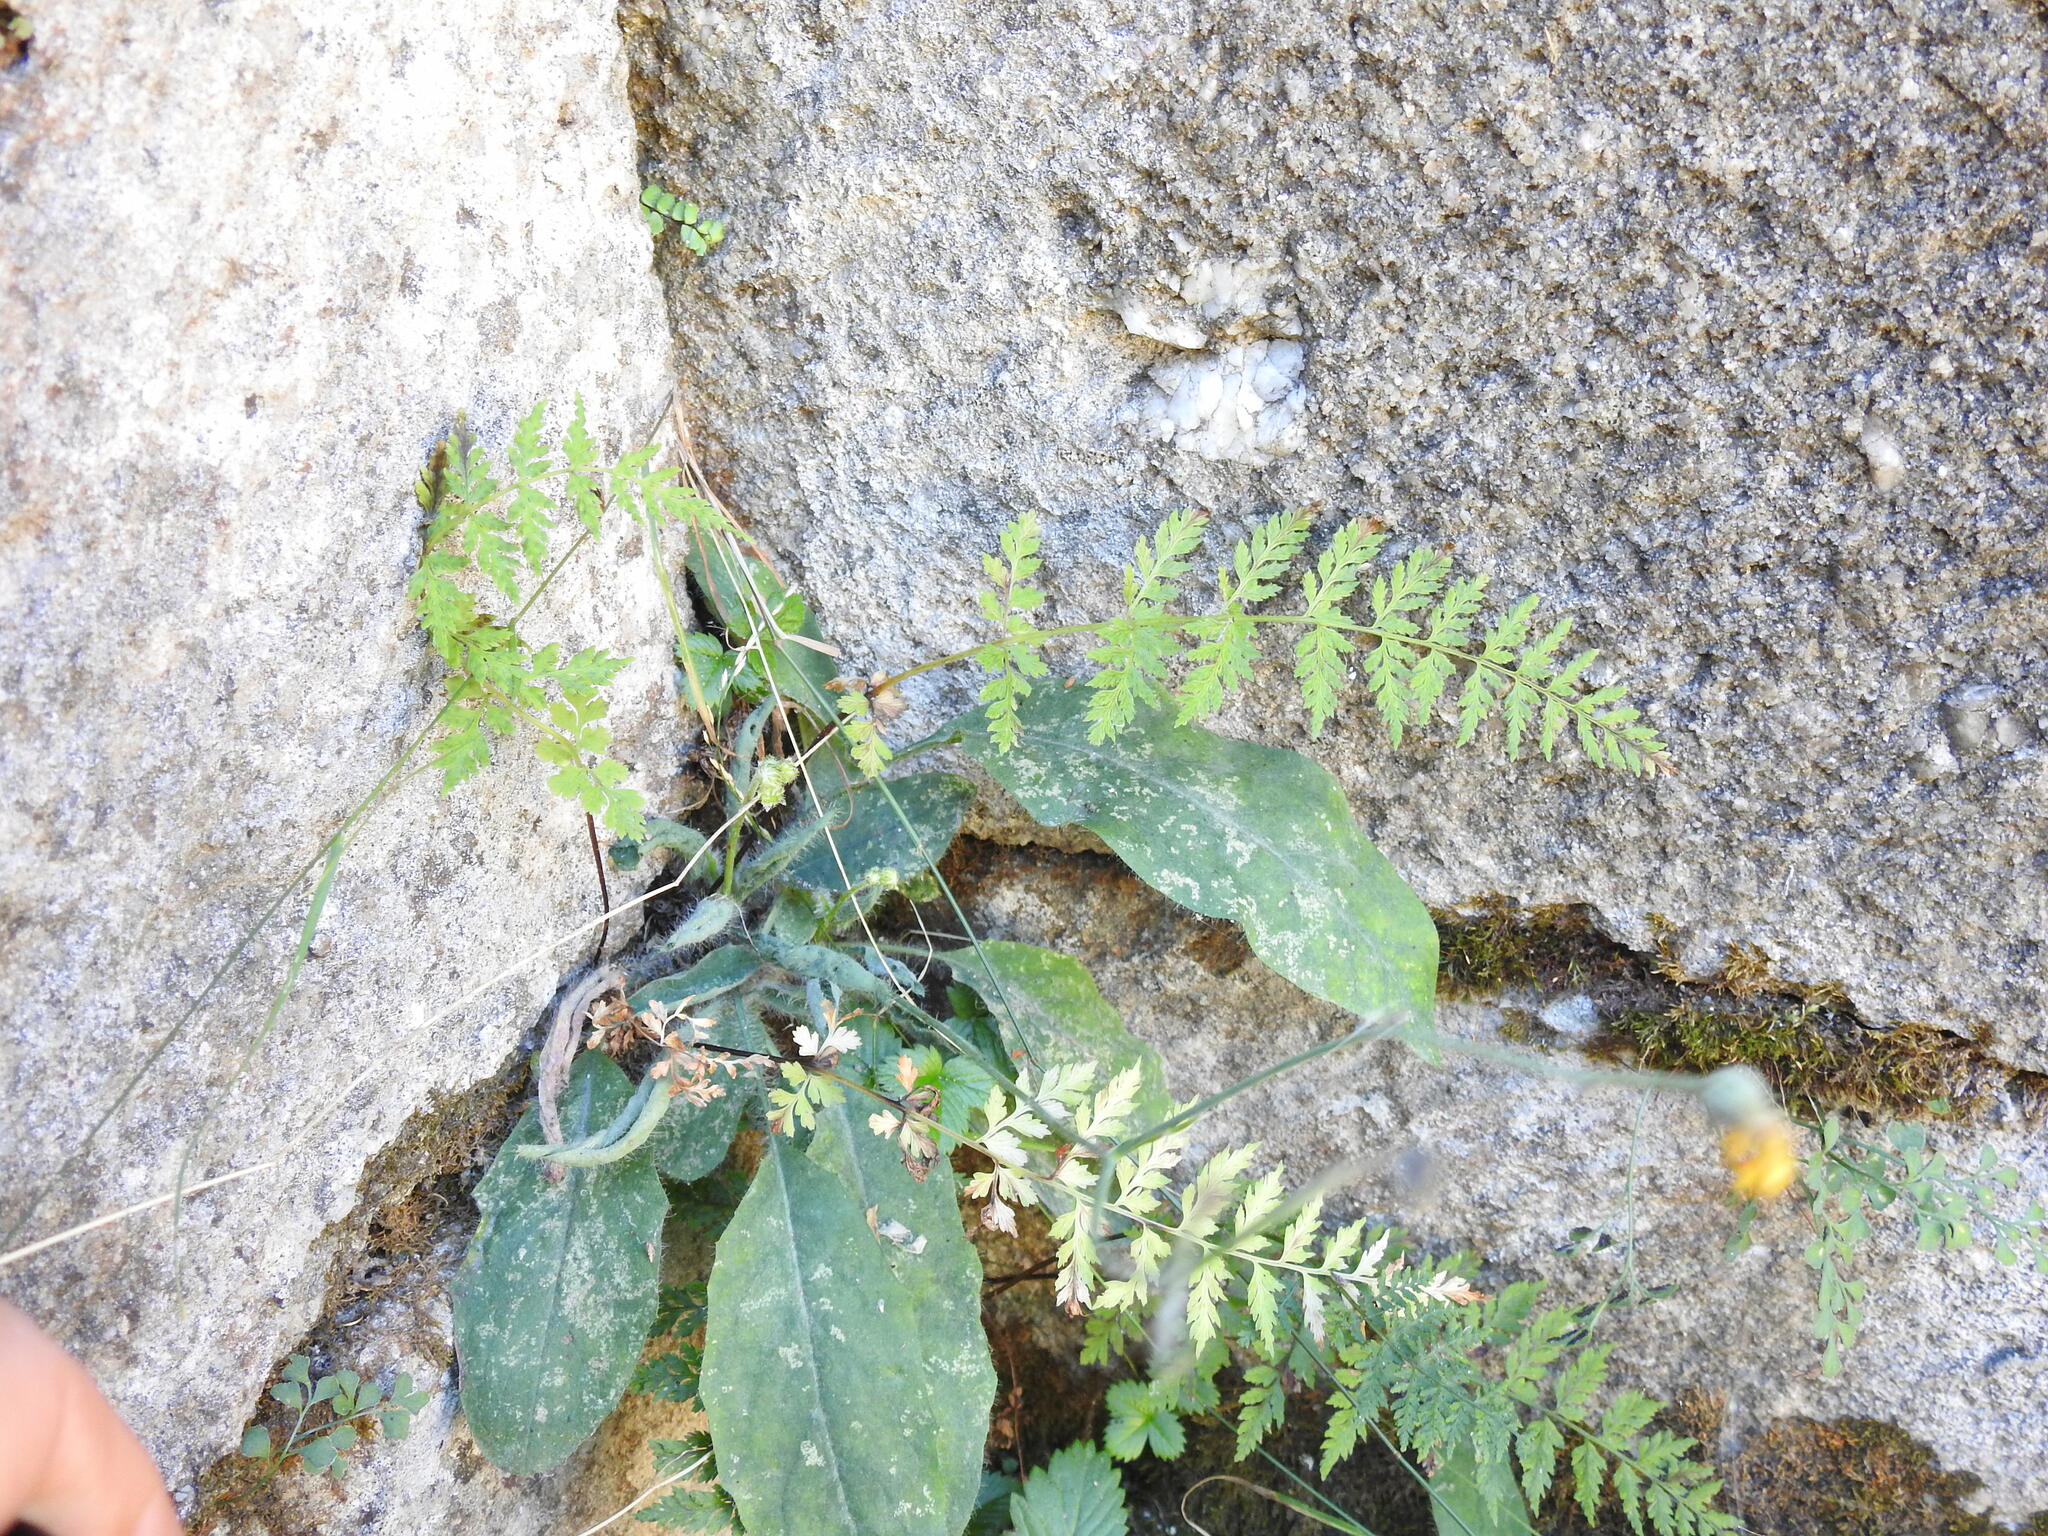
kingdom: Plantae
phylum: Tracheophyta
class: Polypodiopsida
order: Polypodiales
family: Cystopteridaceae
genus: Cystopteris
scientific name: Cystopteris fragilis
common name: Brittle bladder fern
